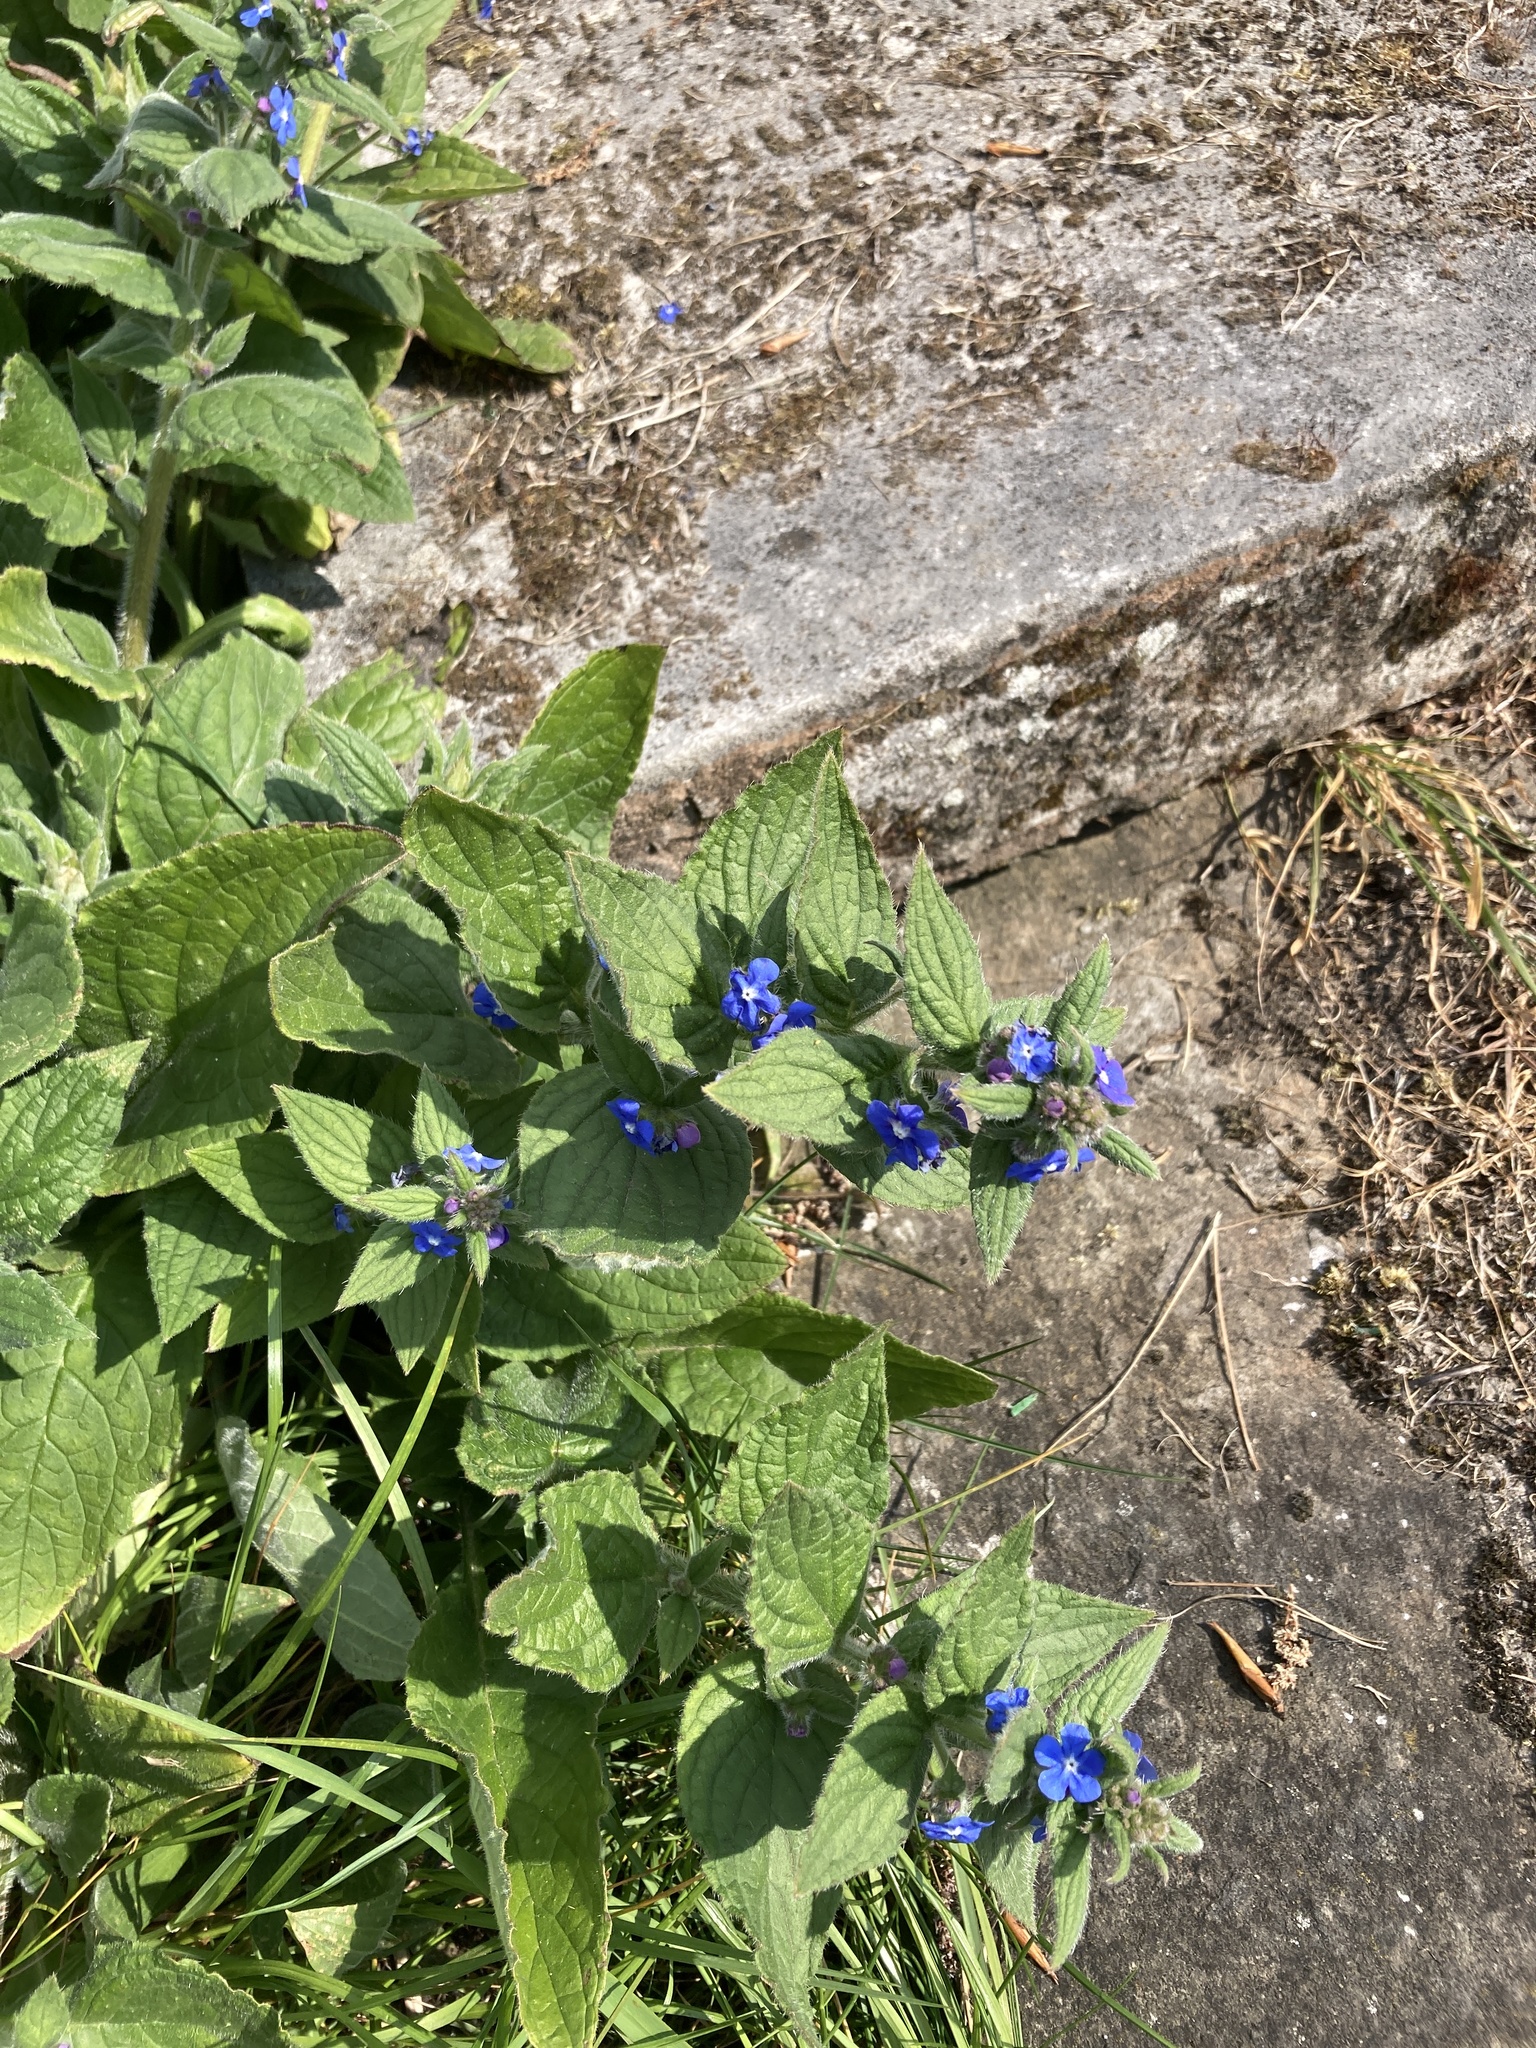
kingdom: Plantae
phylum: Tracheophyta
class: Magnoliopsida
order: Boraginales
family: Boraginaceae
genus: Pentaglottis
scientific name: Pentaglottis sempervirens
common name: Green alkanet
